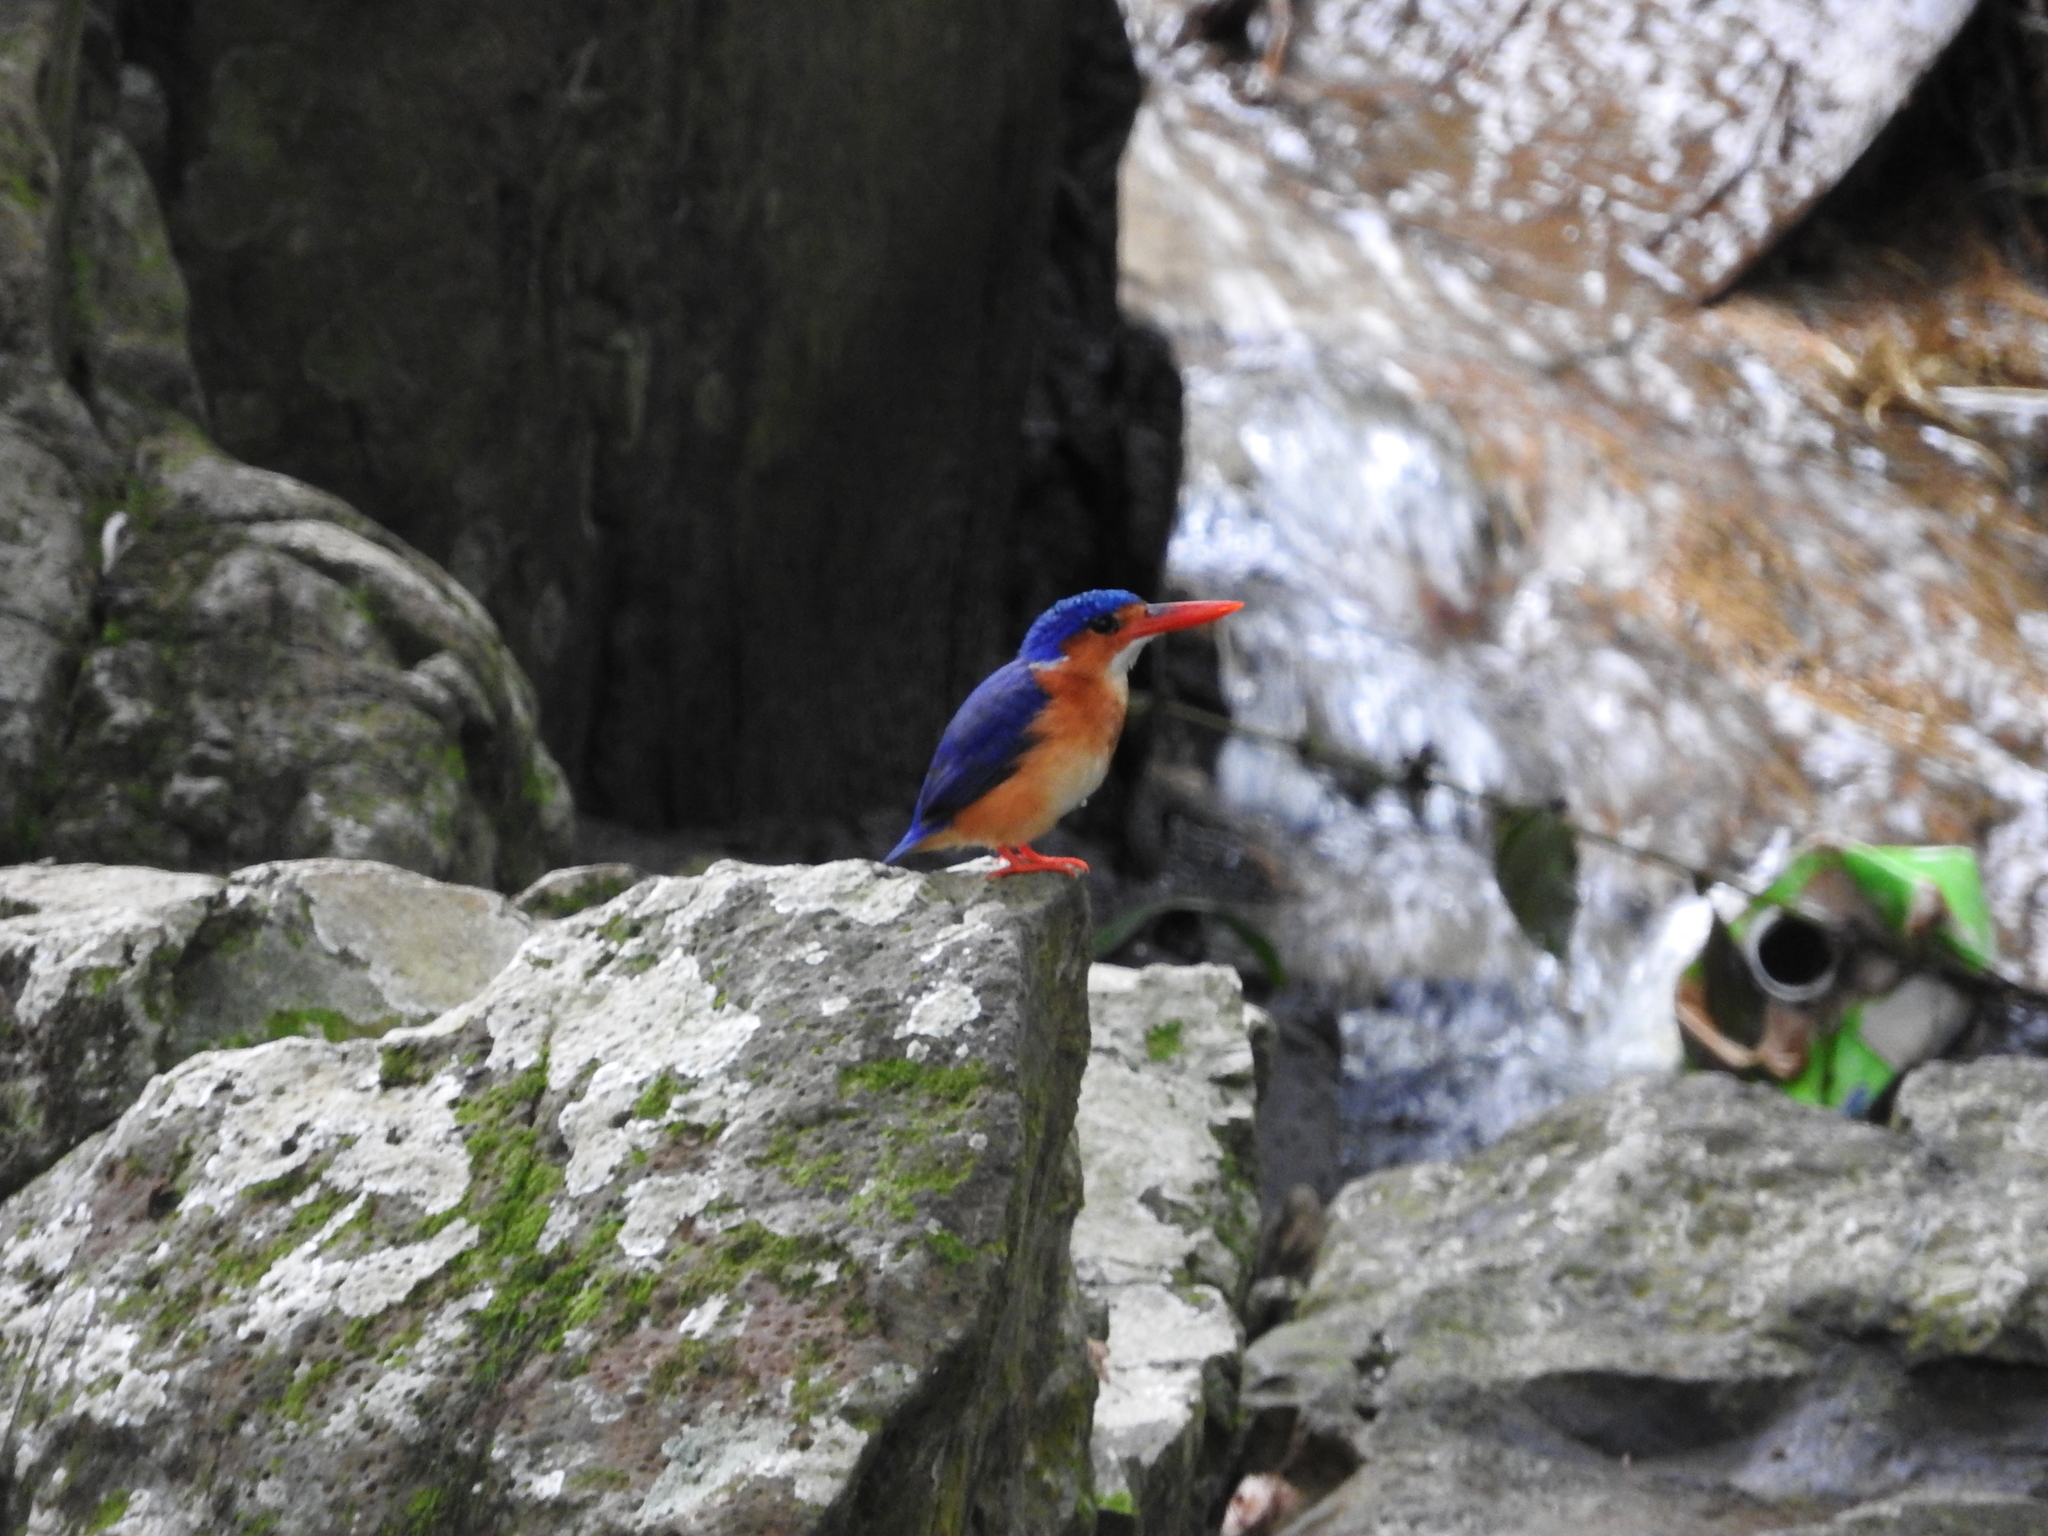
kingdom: Animalia
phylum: Chordata
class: Aves
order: Coraciiformes
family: Alcedinidae
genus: Corythornis
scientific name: Corythornis cristatus
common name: Malachite kingfisher
